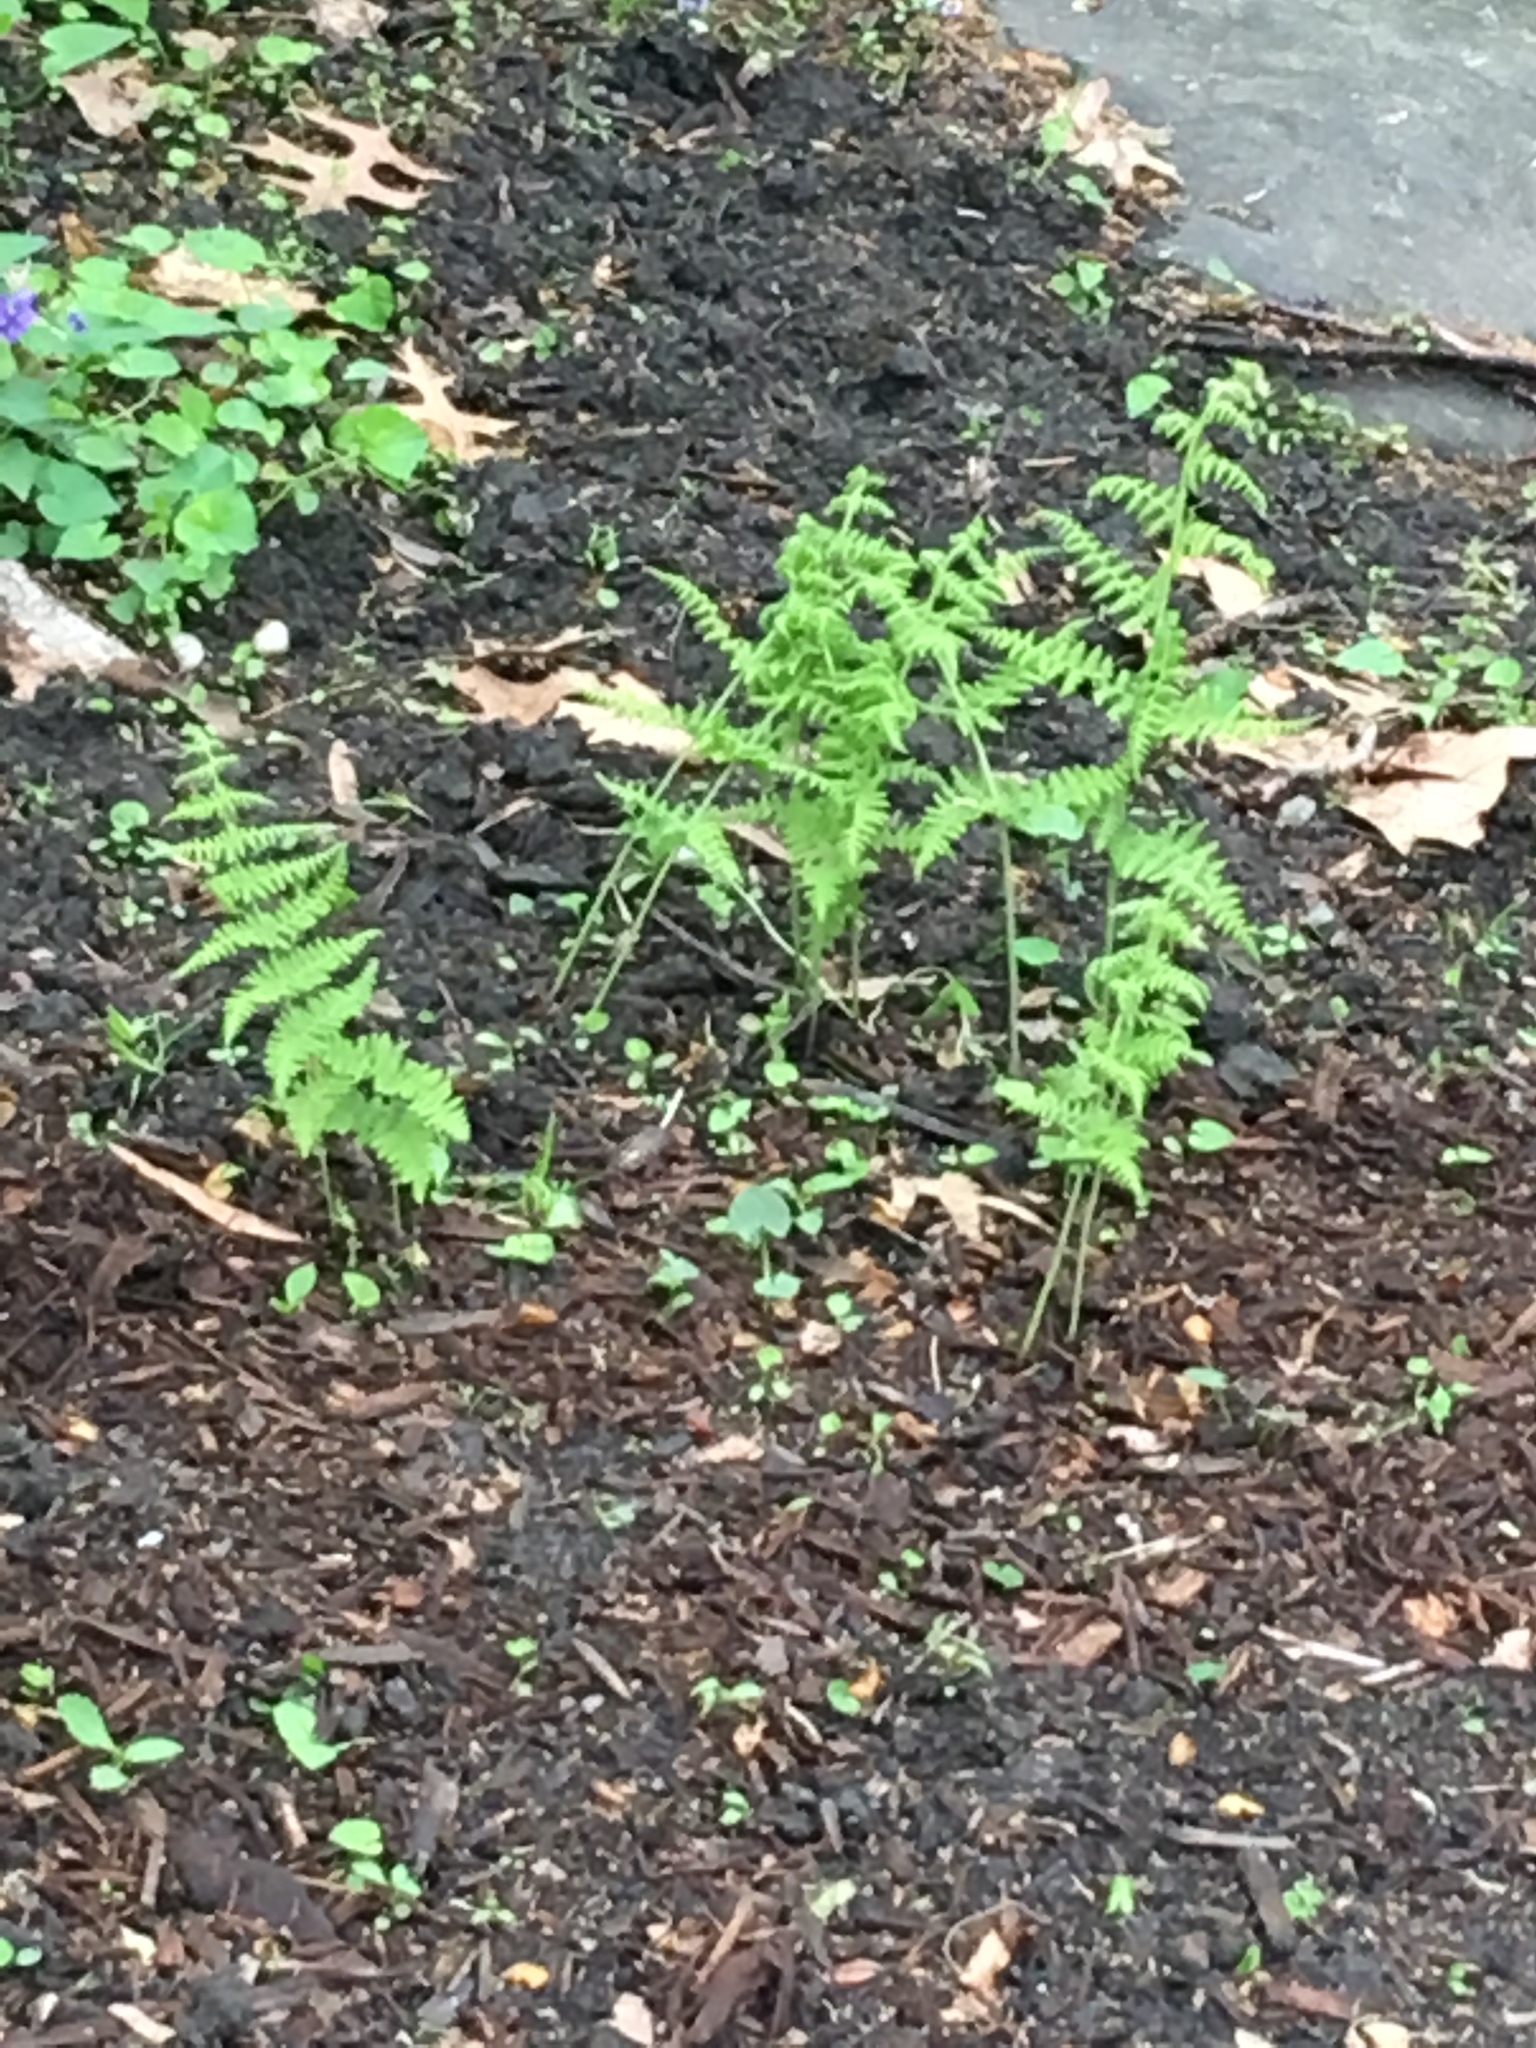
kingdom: Plantae
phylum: Tracheophyta
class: Polypodiopsida
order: Polypodiales
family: Dennstaedtiaceae
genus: Sitobolium
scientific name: Sitobolium punctilobum
